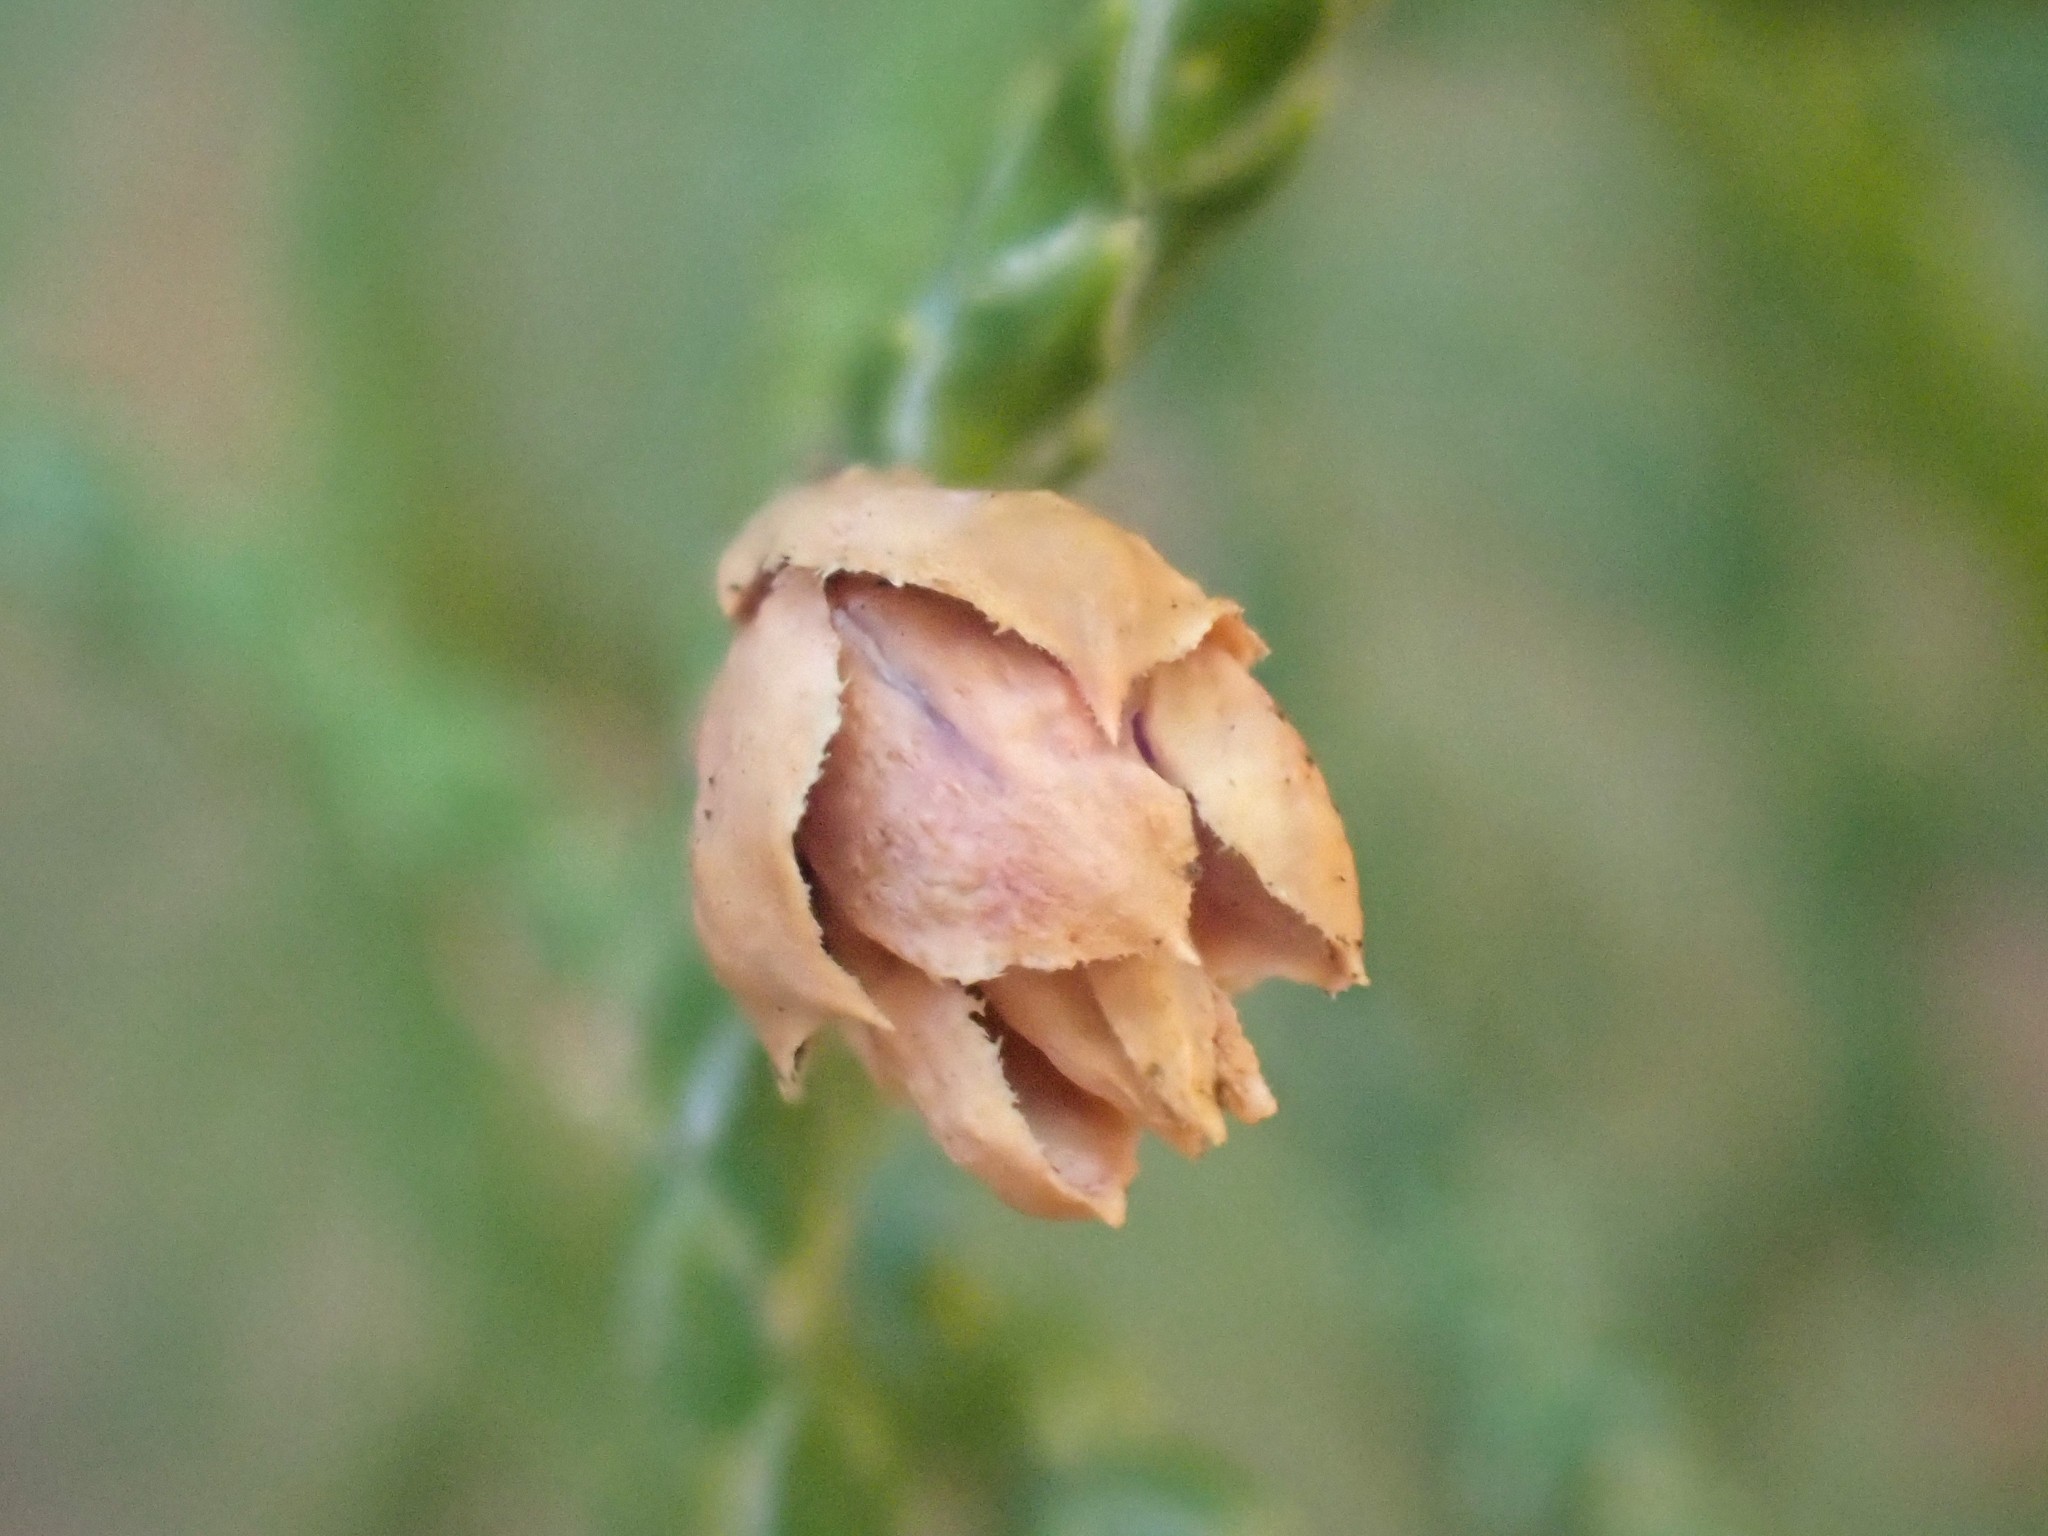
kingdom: Animalia
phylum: Arthropoda
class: Insecta
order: Diptera
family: Cecidomyiidae
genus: Walshomyia
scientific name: Walshomyia
